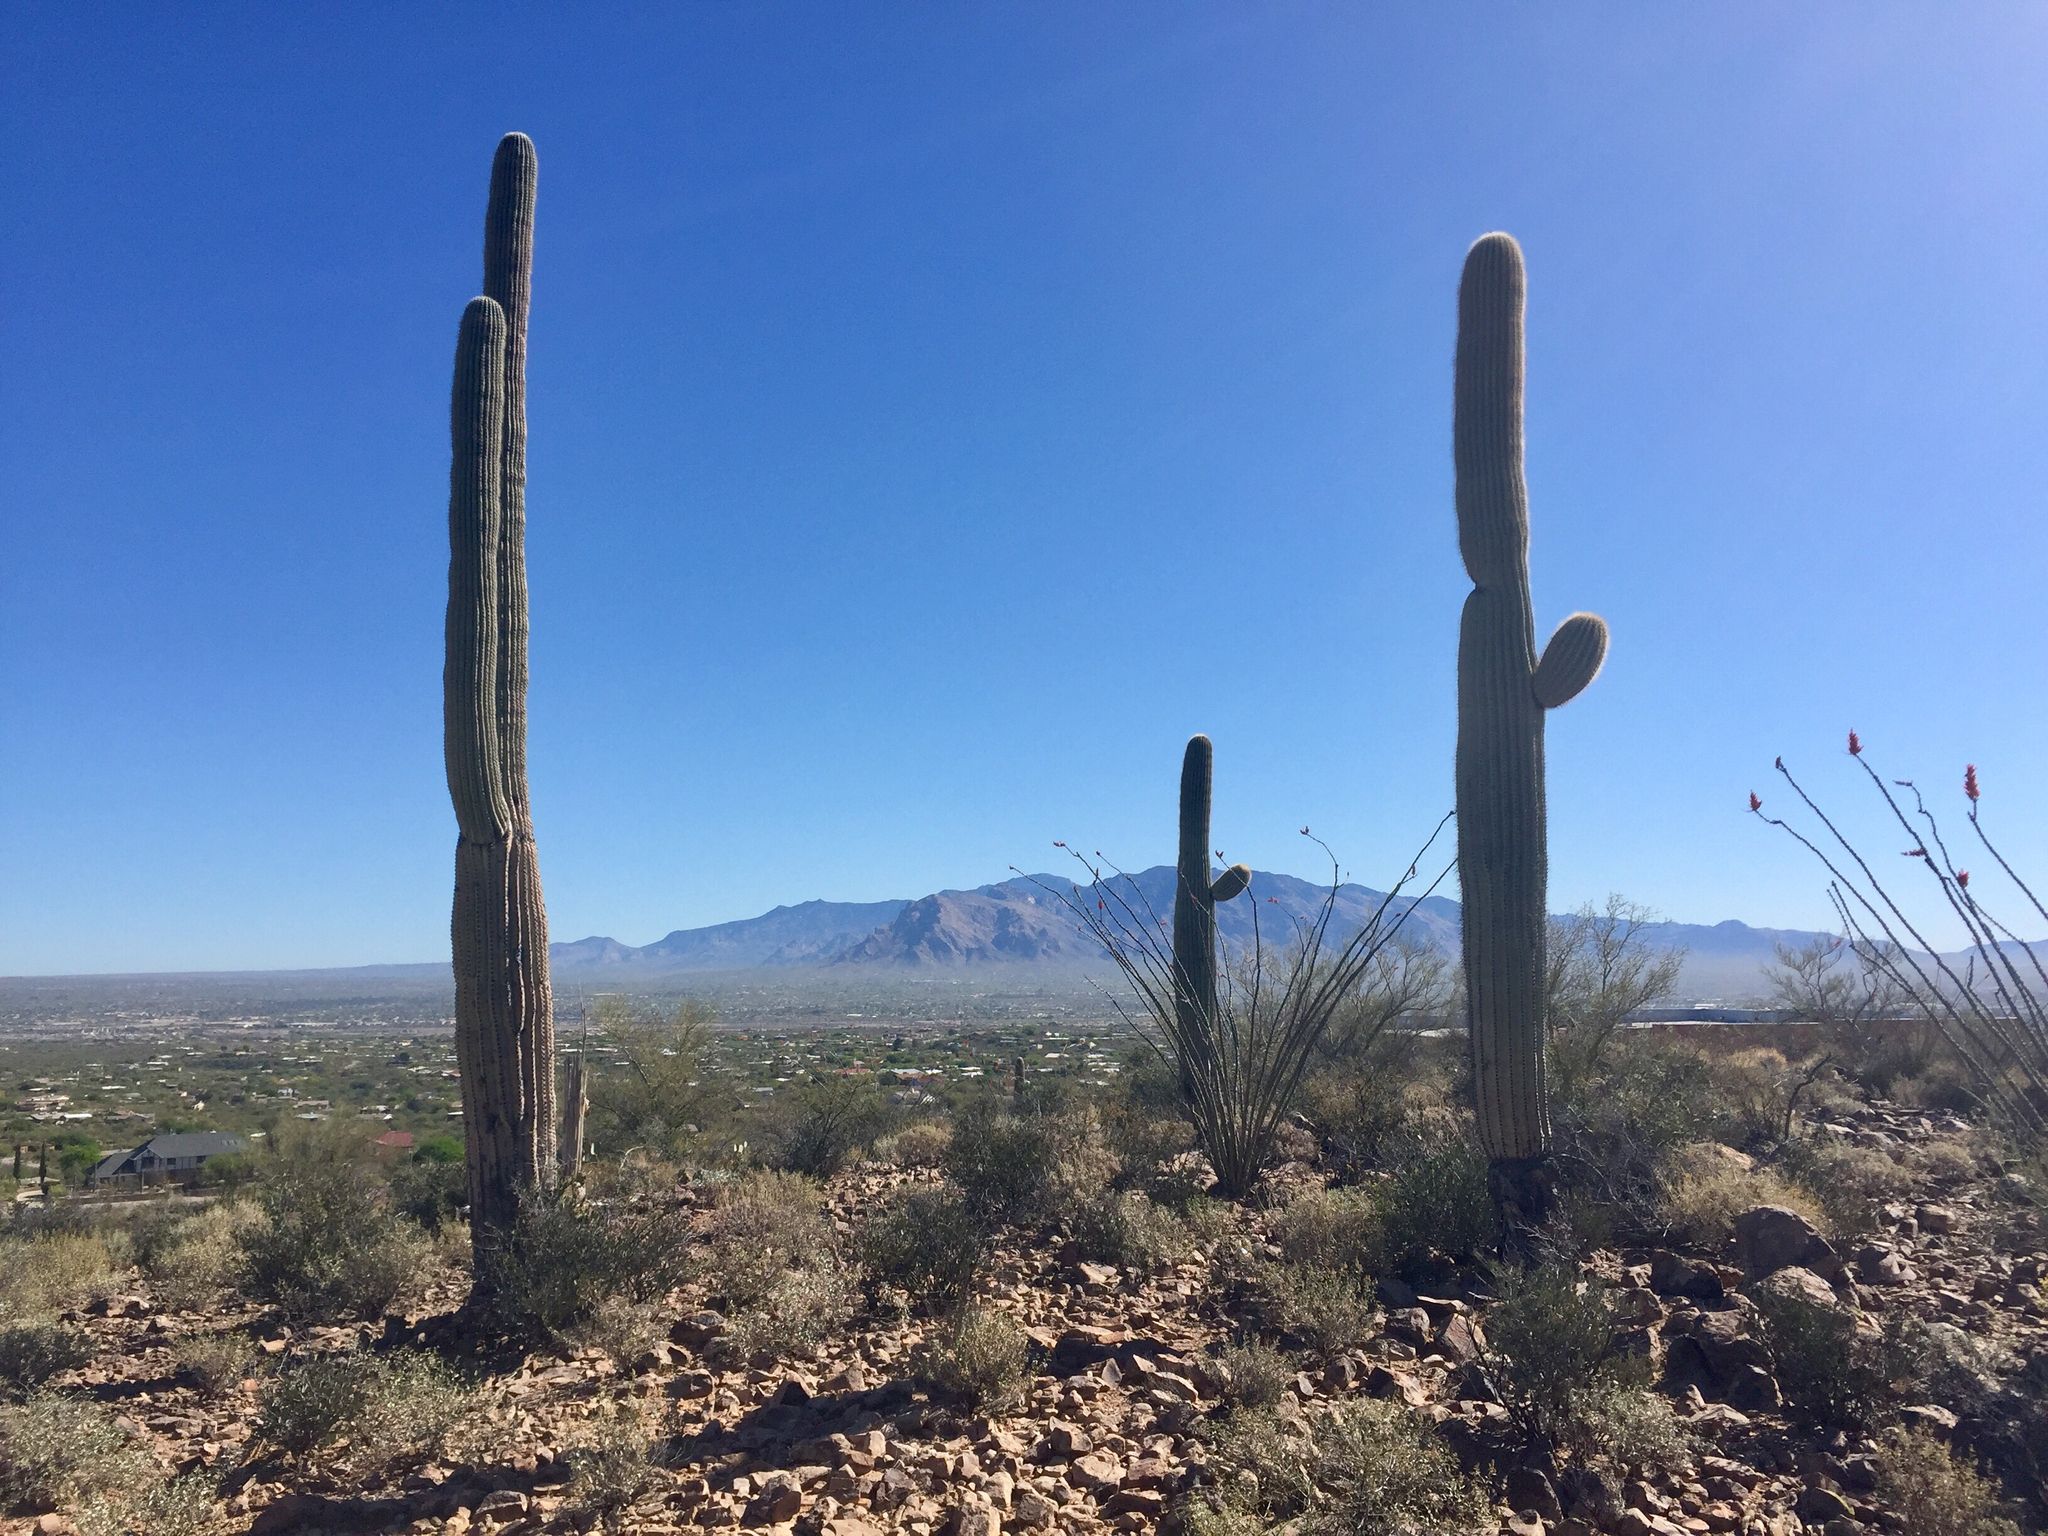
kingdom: Plantae
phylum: Tracheophyta
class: Magnoliopsida
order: Caryophyllales
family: Cactaceae
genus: Carnegiea
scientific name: Carnegiea gigantea
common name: Saguaro
